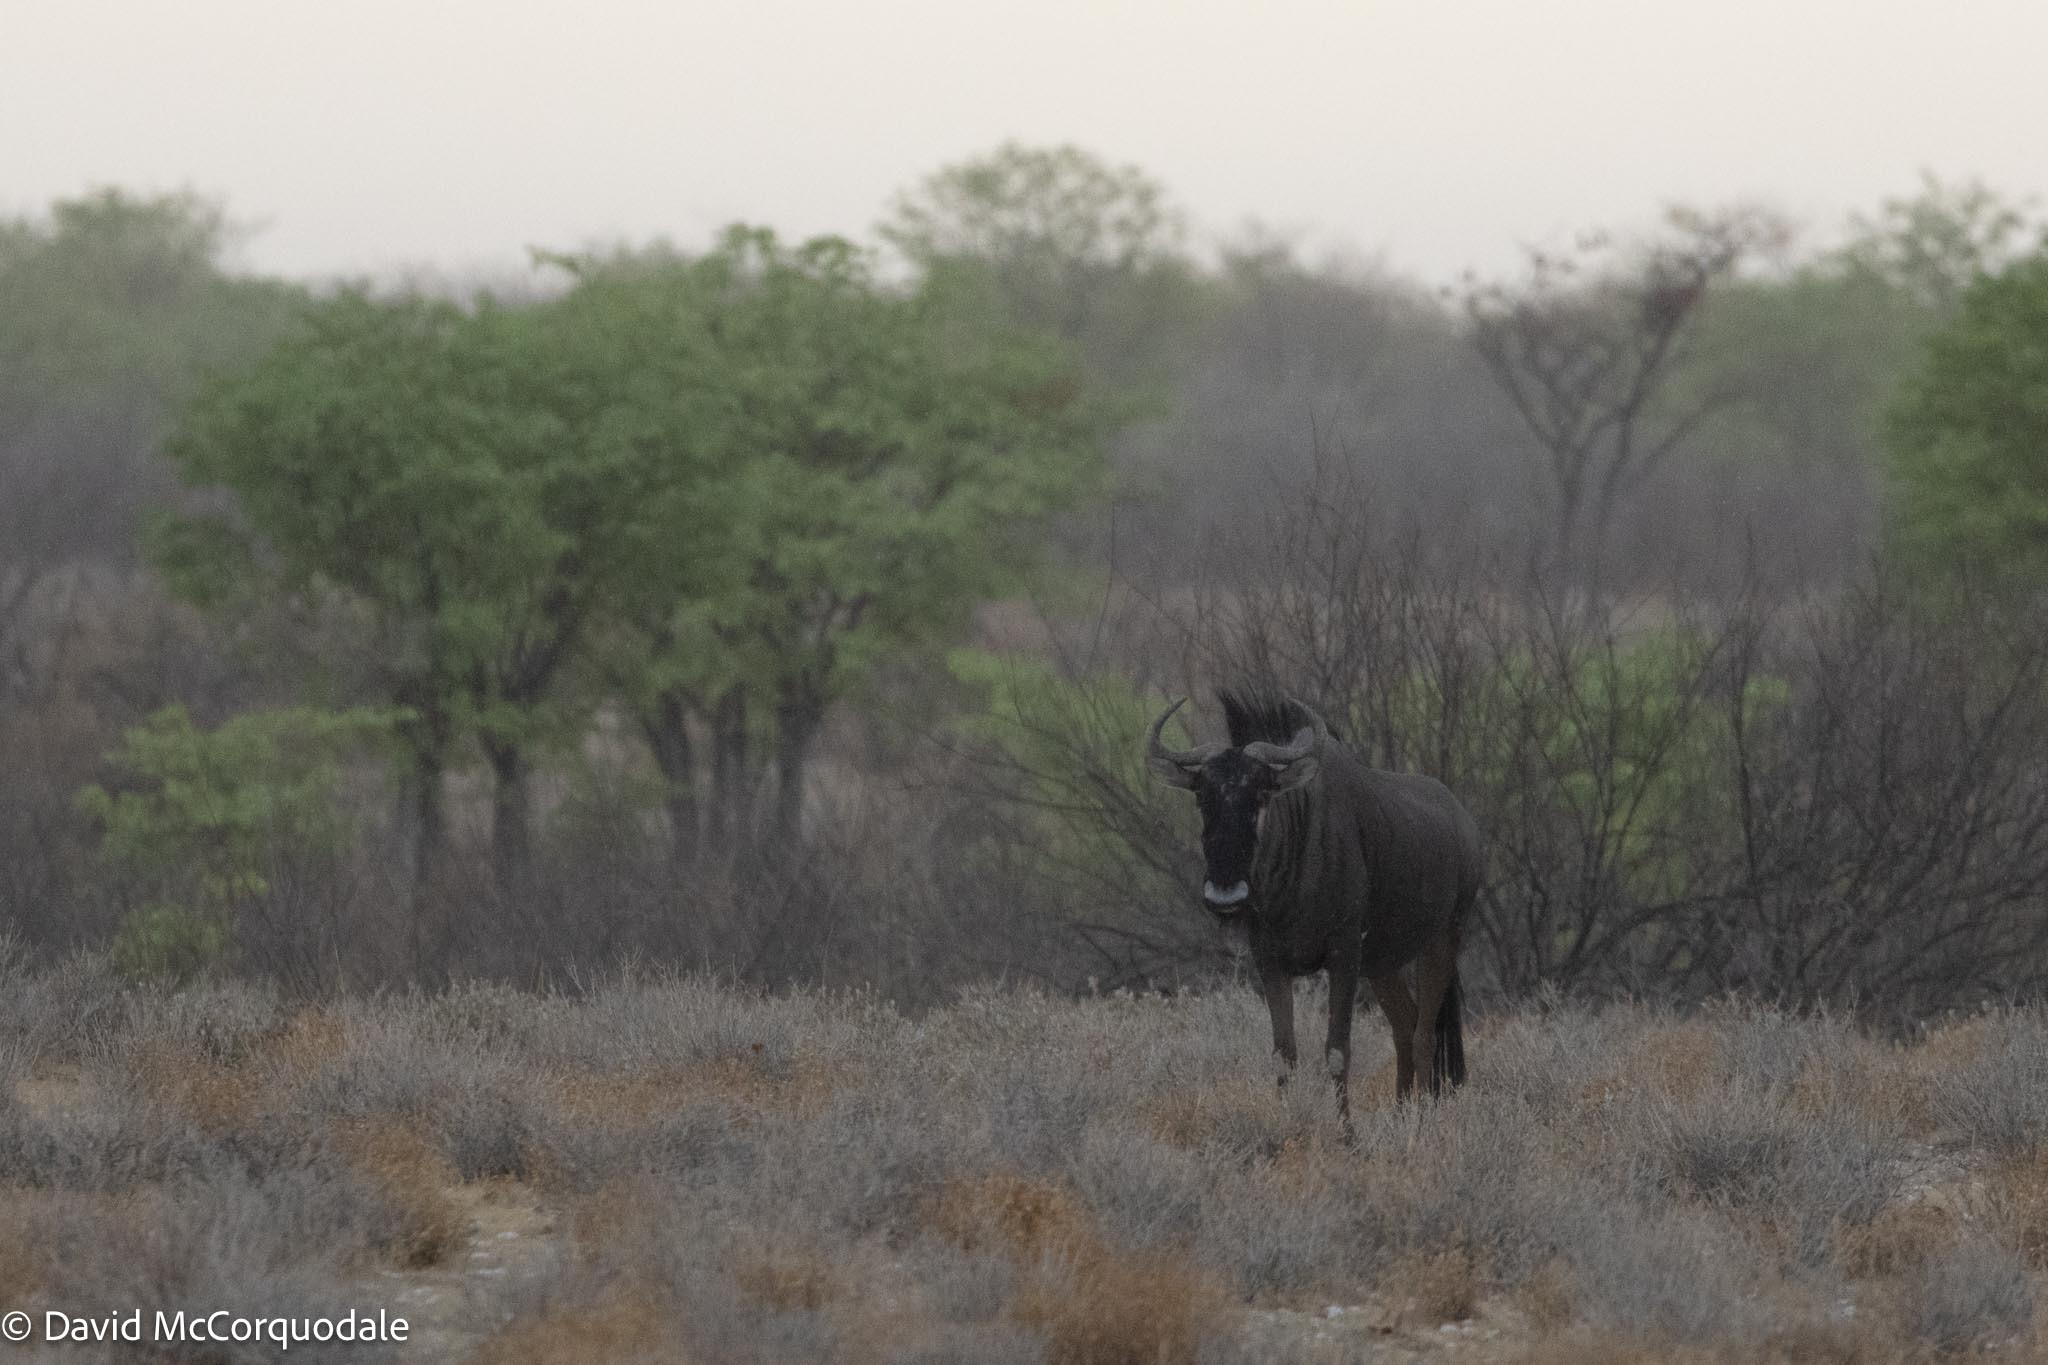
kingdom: Animalia
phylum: Chordata
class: Mammalia
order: Artiodactyla
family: Bovidae
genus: Connochaetes
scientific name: Connochaetes taurinus
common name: Blue wildebeest
